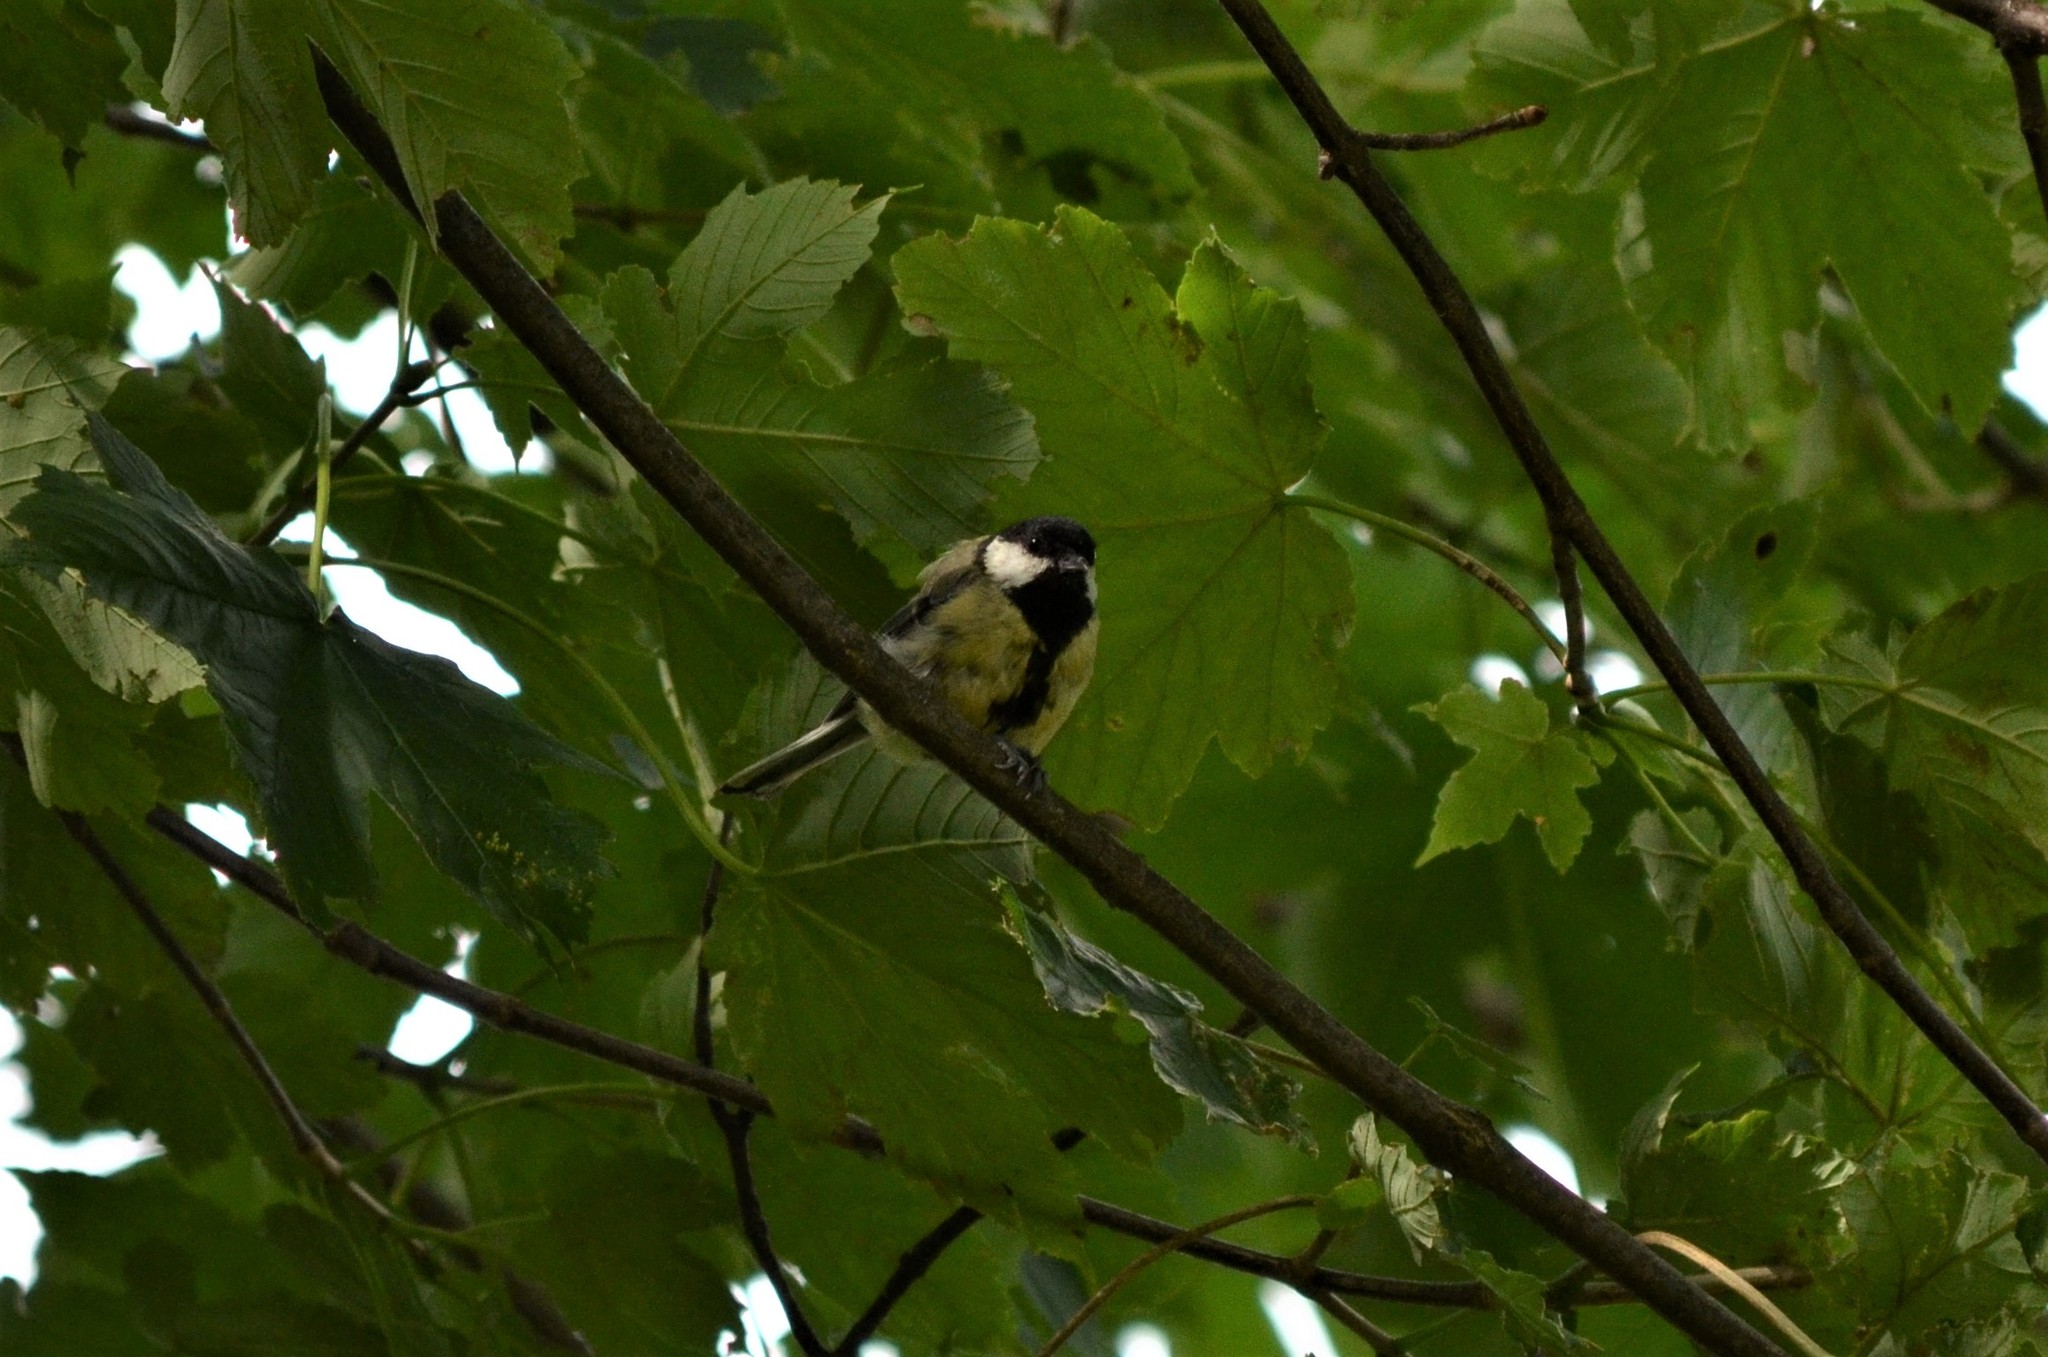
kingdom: Animalia
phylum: Chordata
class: Aves
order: Passeriformes
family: Paridae
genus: Parus
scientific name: Parus major
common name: Great tit
